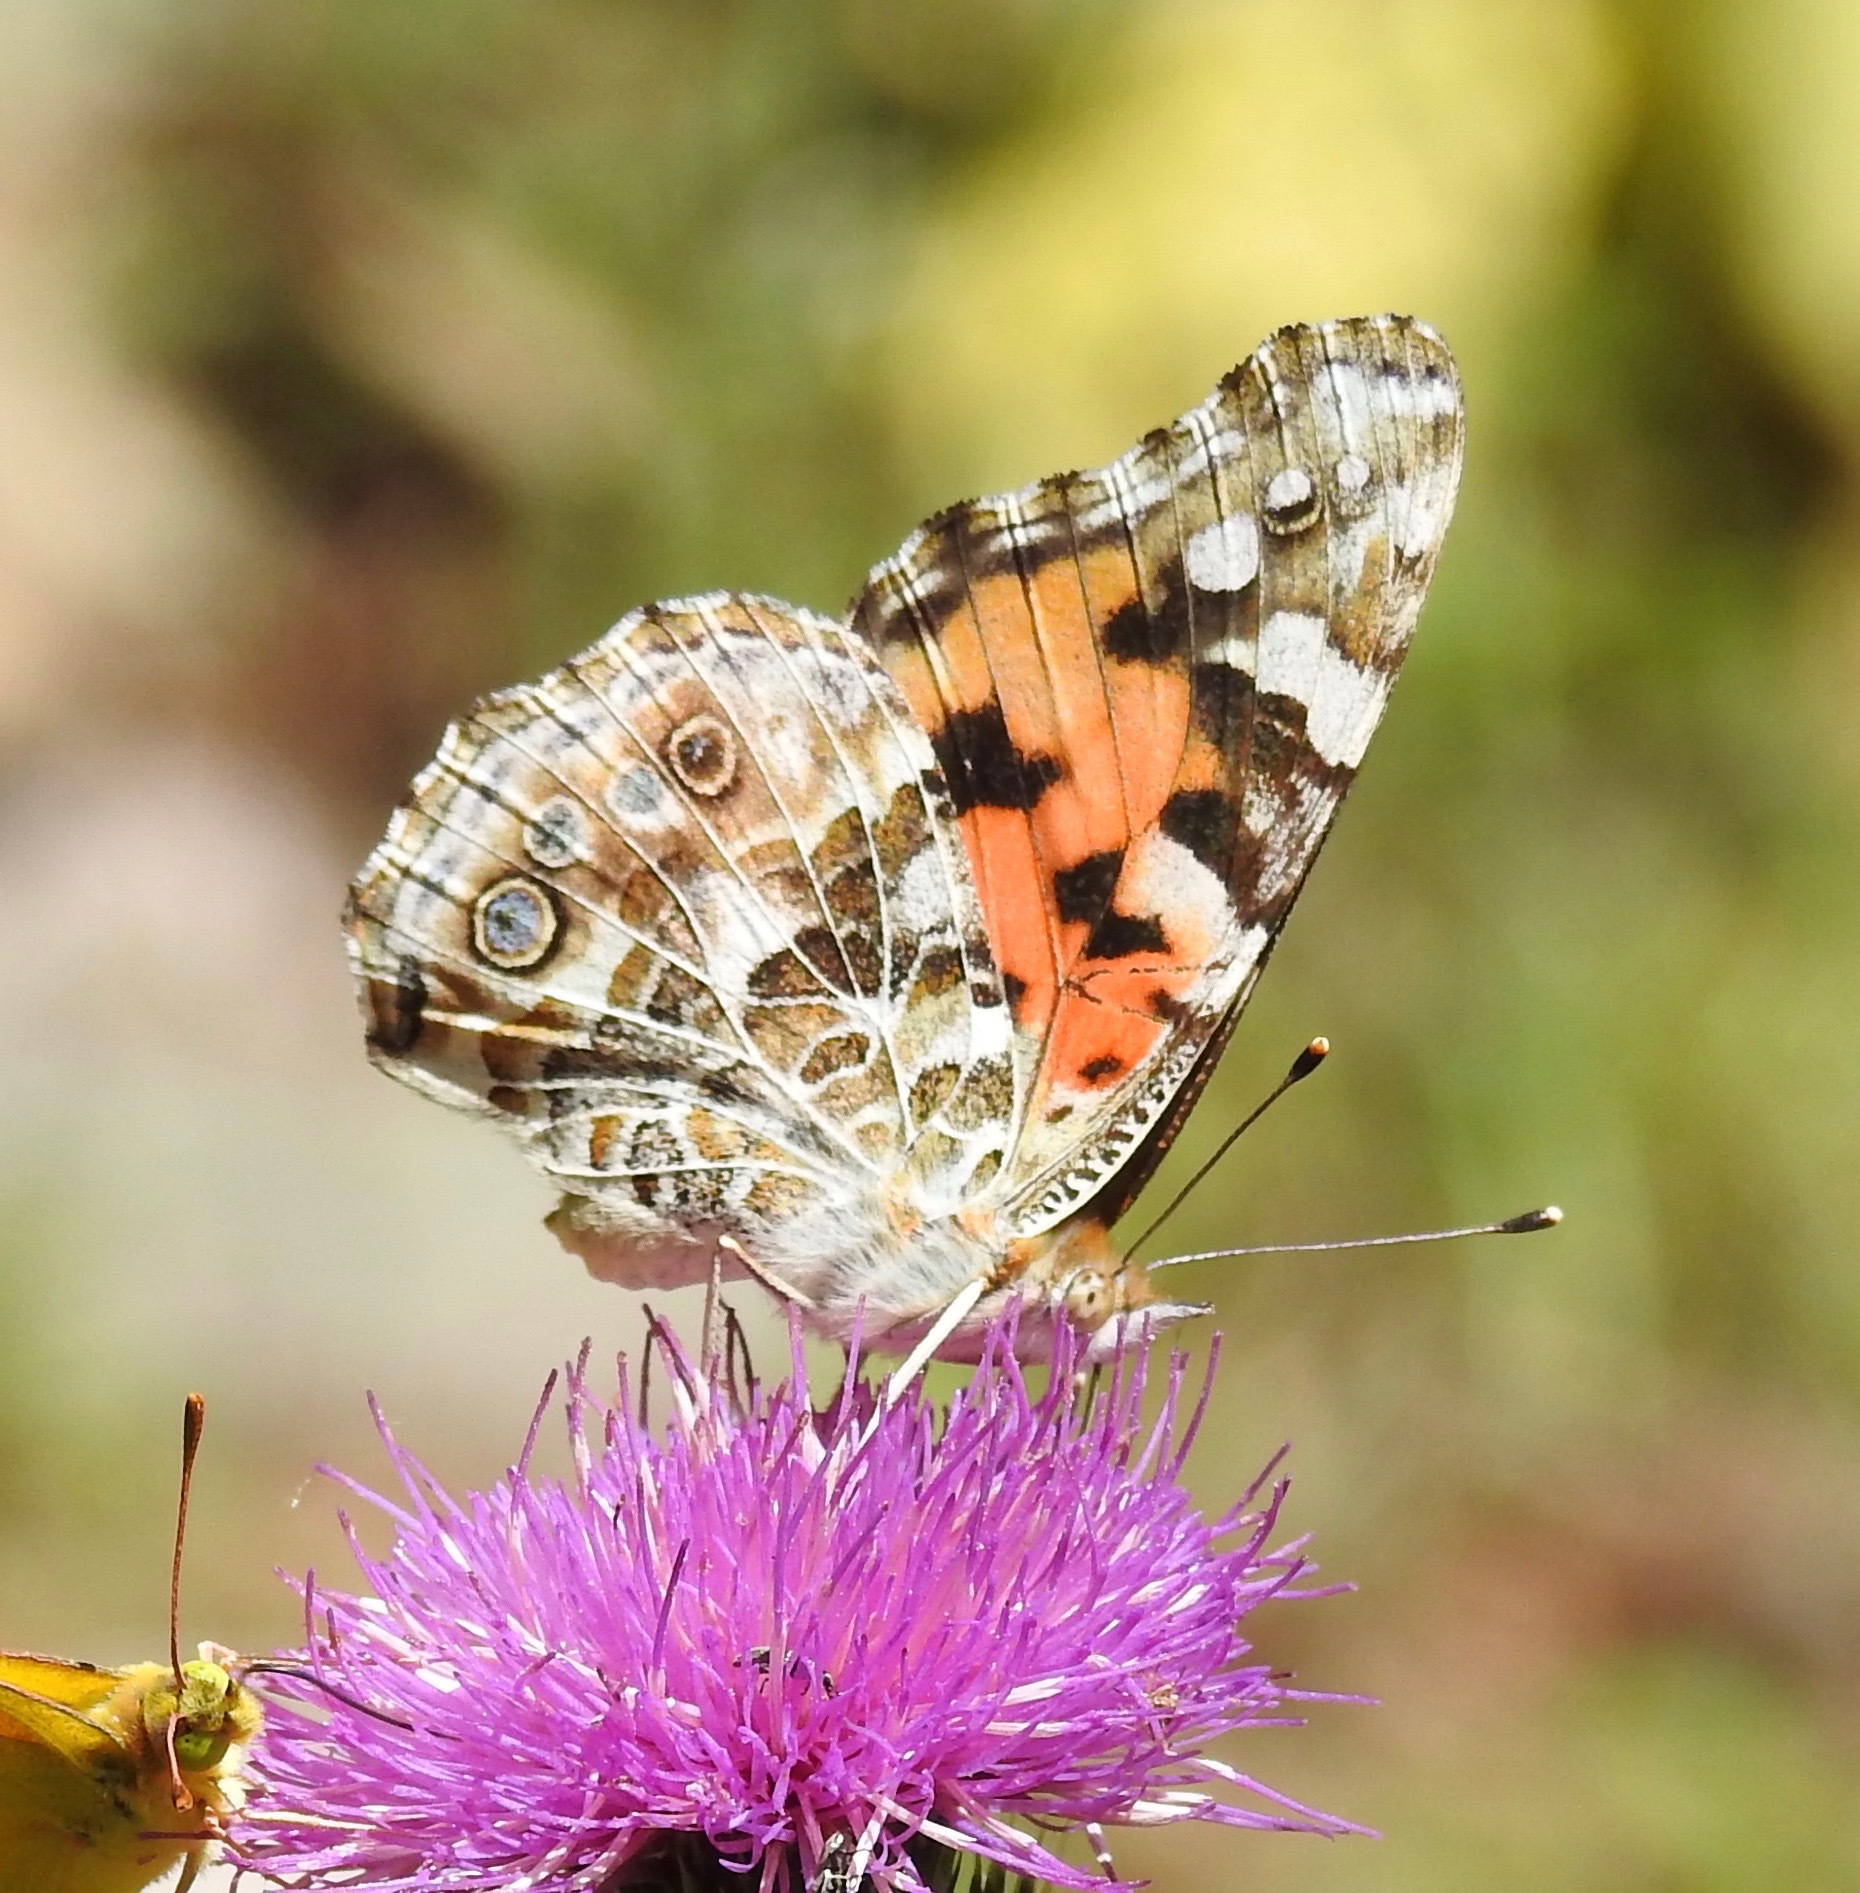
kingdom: Animalia
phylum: Arthropoda
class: Insecta
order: Lepidoptera
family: Nymphalidae
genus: Vanessa
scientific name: Vanessa cardui
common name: Painted lady
